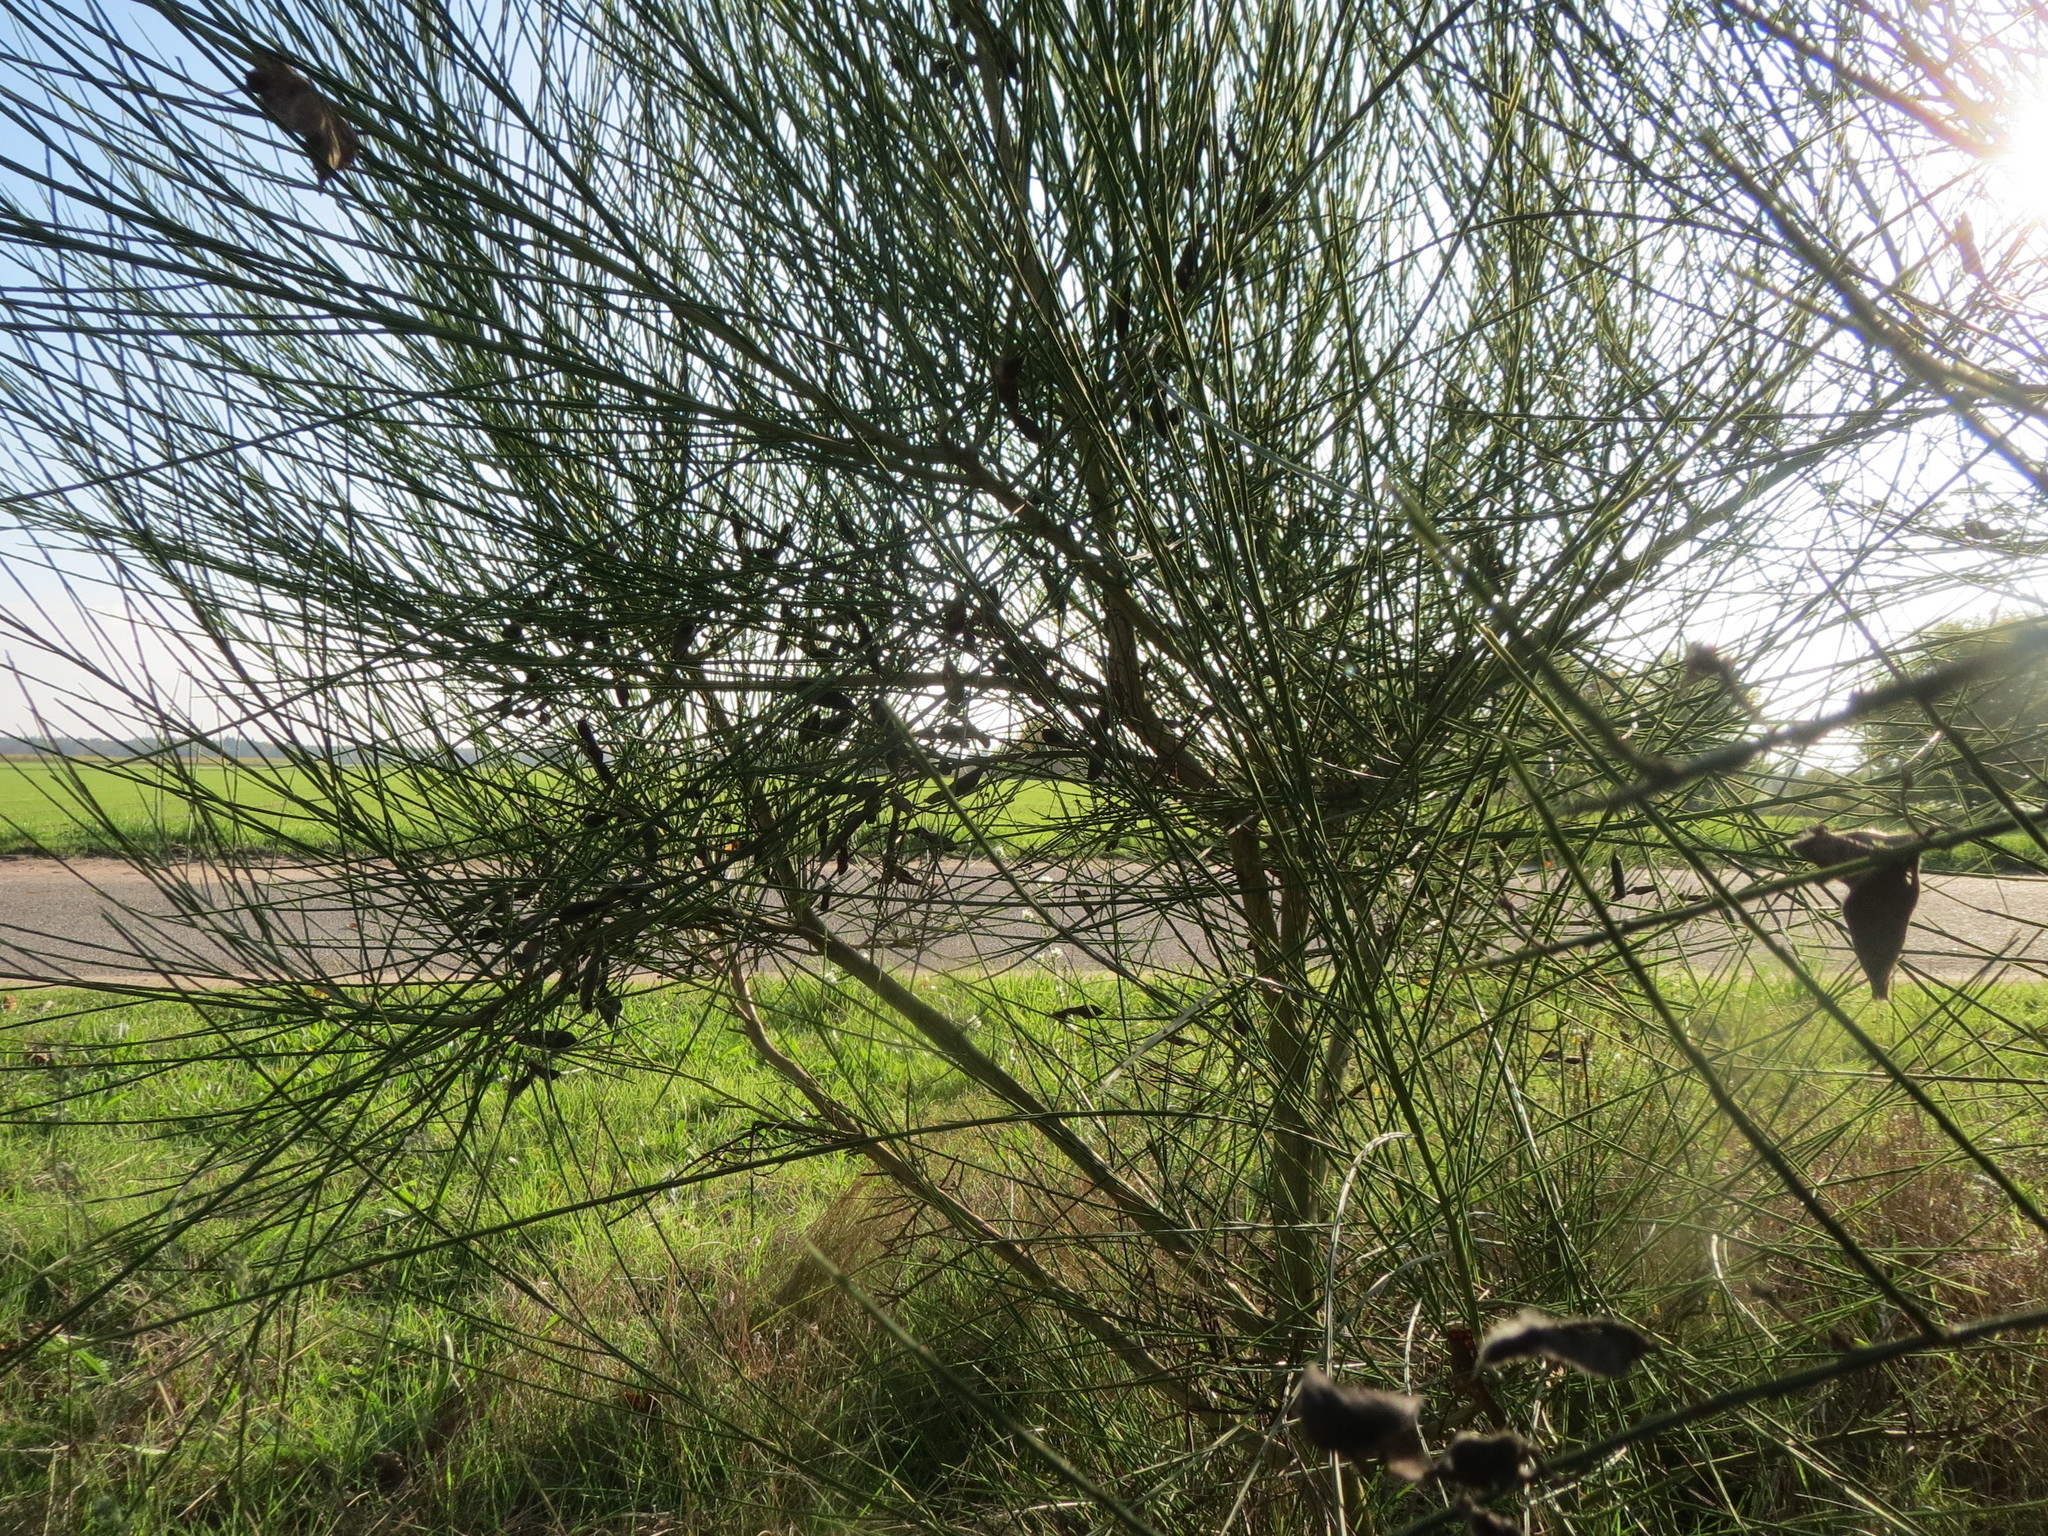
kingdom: Plantae
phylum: Tracheophyta
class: Magnoliopsida
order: Fabales
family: Fabaceae
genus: Cytisus
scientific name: Cytisus scoparius
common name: Scotch broom
